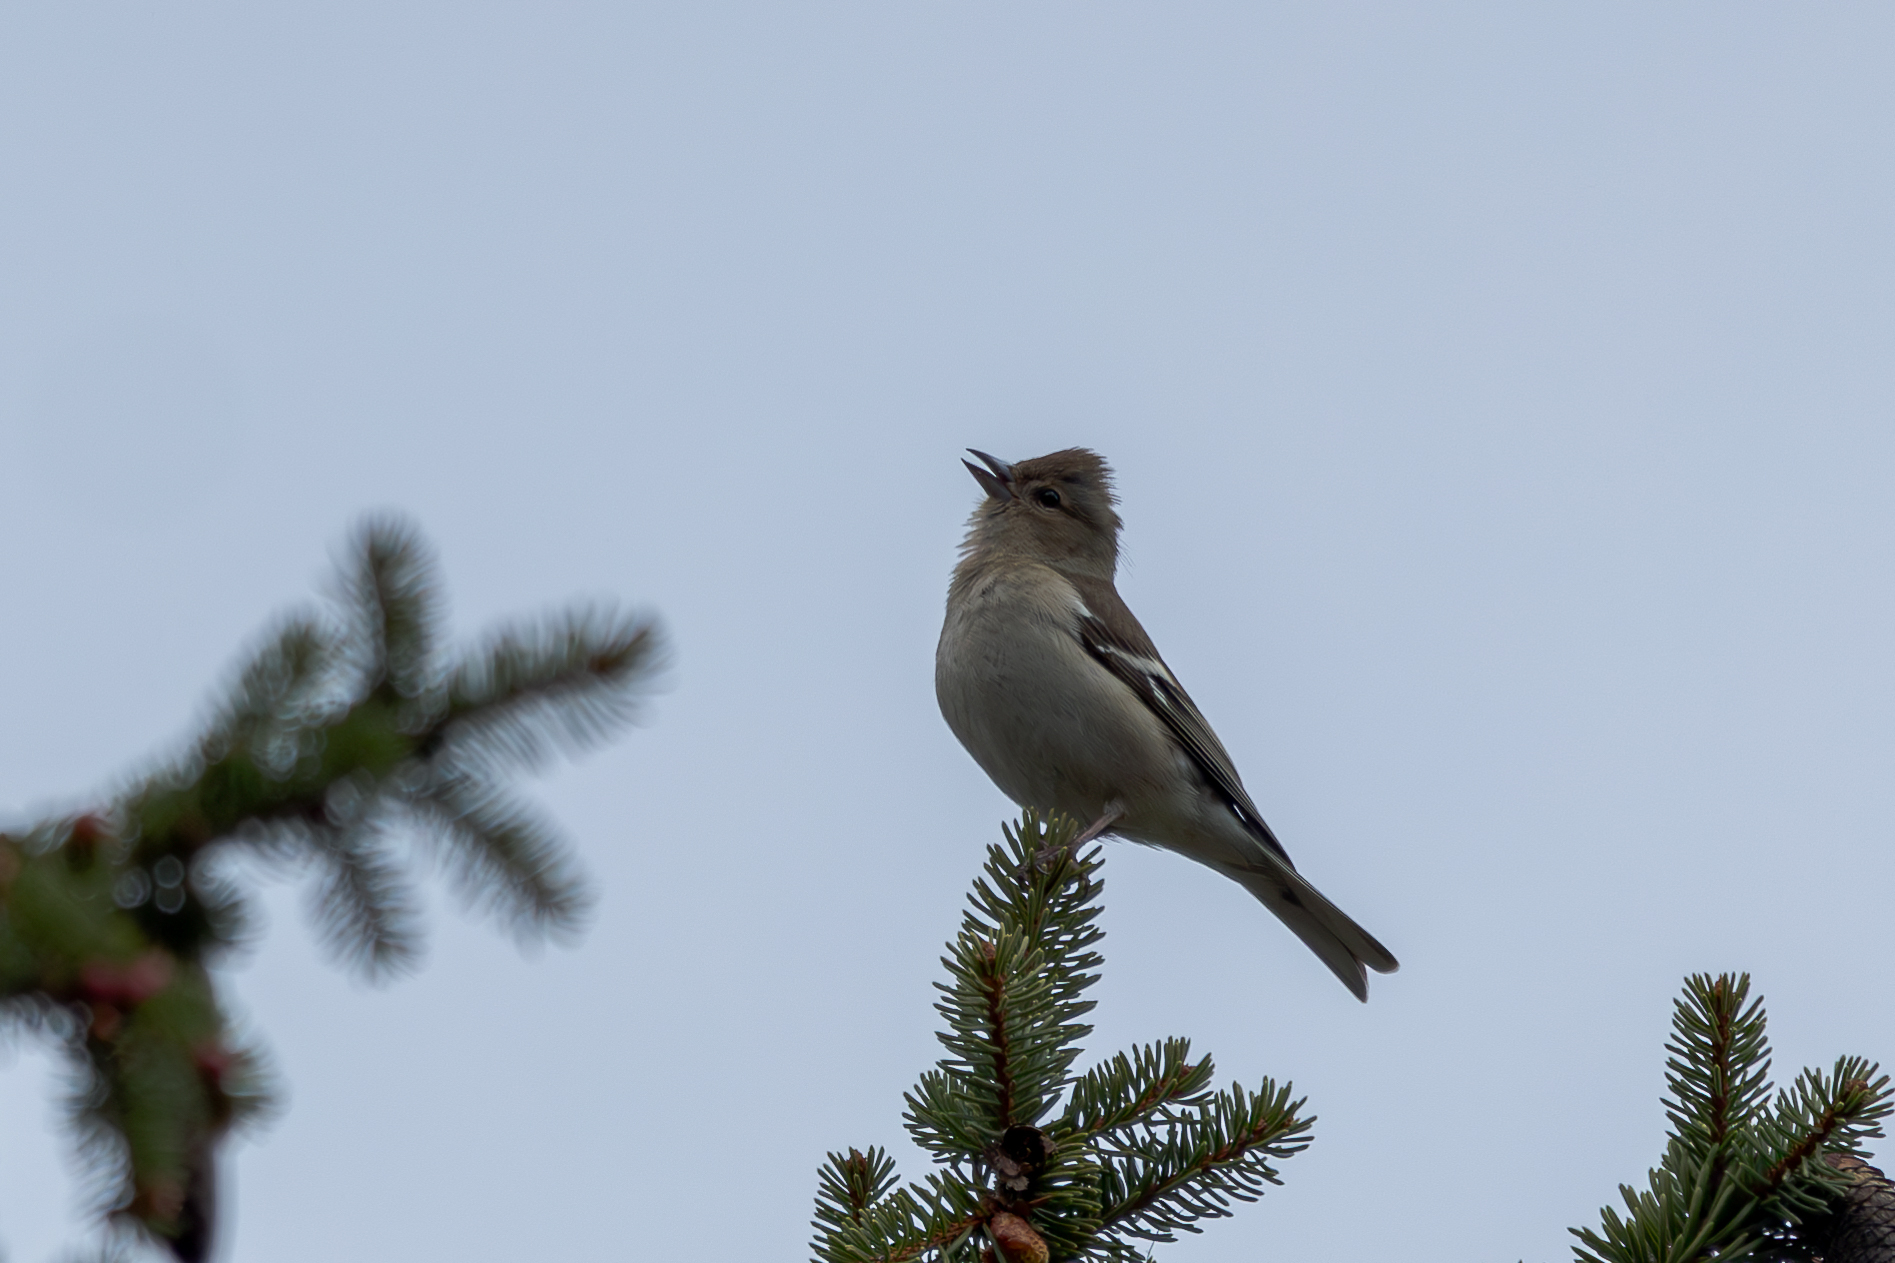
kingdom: Animalia
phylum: Chordata
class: Aves
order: Passeriformes
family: Fringillidae
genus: Fringilla
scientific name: Fringilla coelebs
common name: Common chaffinch
